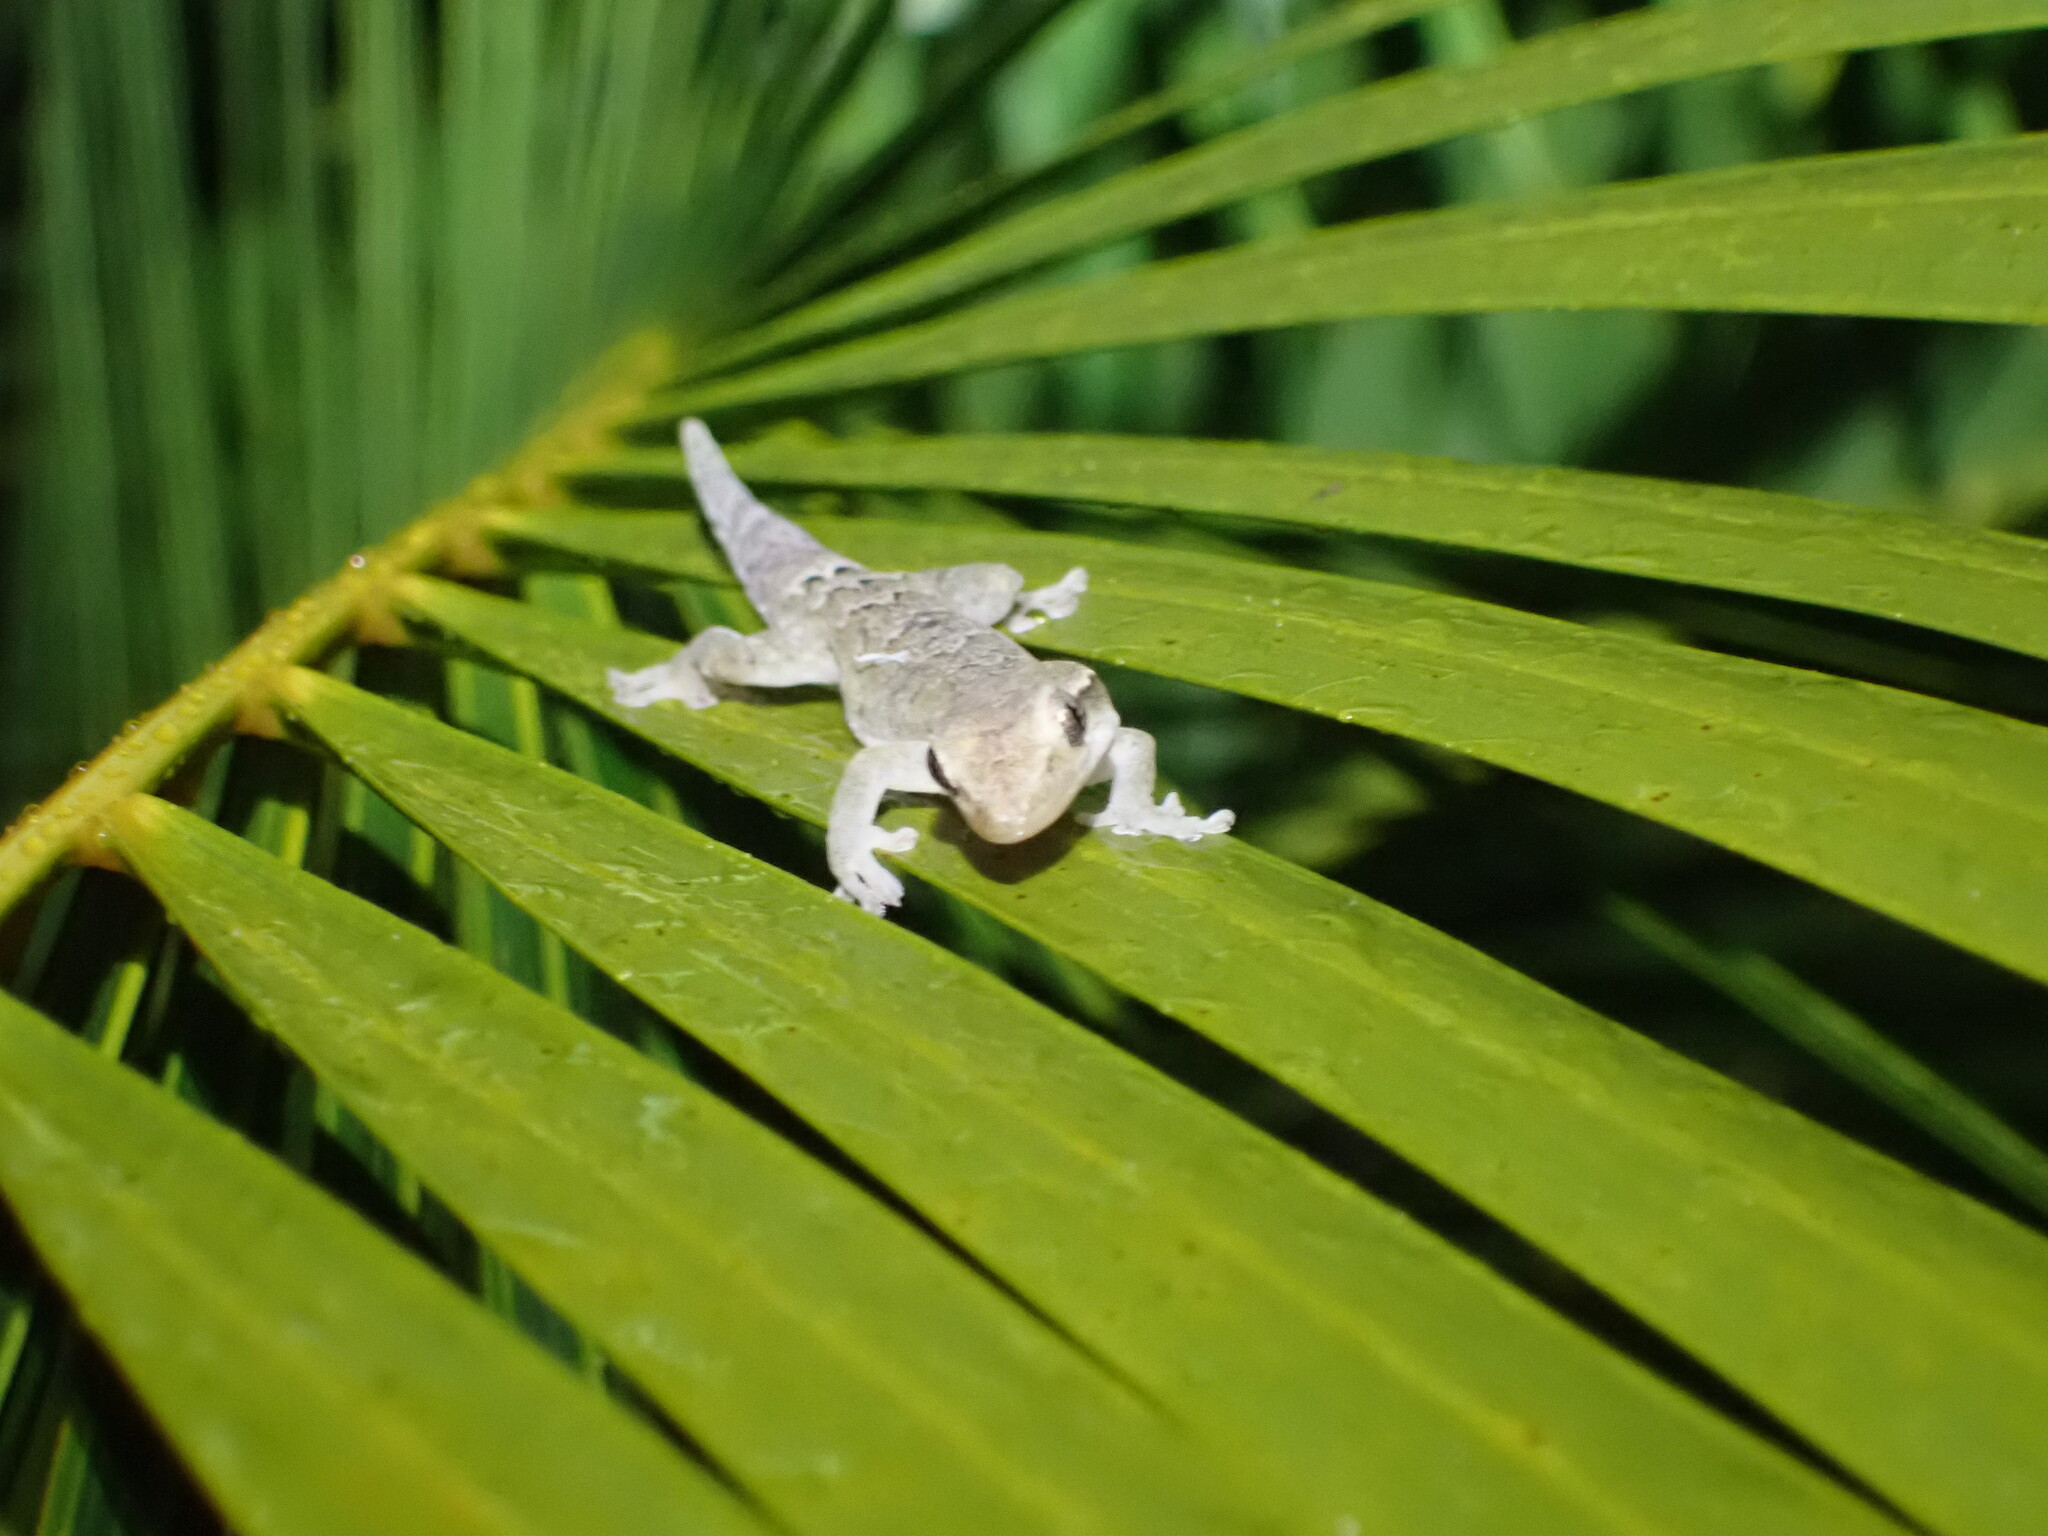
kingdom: Animalia
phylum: Chordata
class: Squamata
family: Gekkonidae
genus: Lepidodactylus
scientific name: Lepidodactylus lugubris
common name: Mourning gecko
